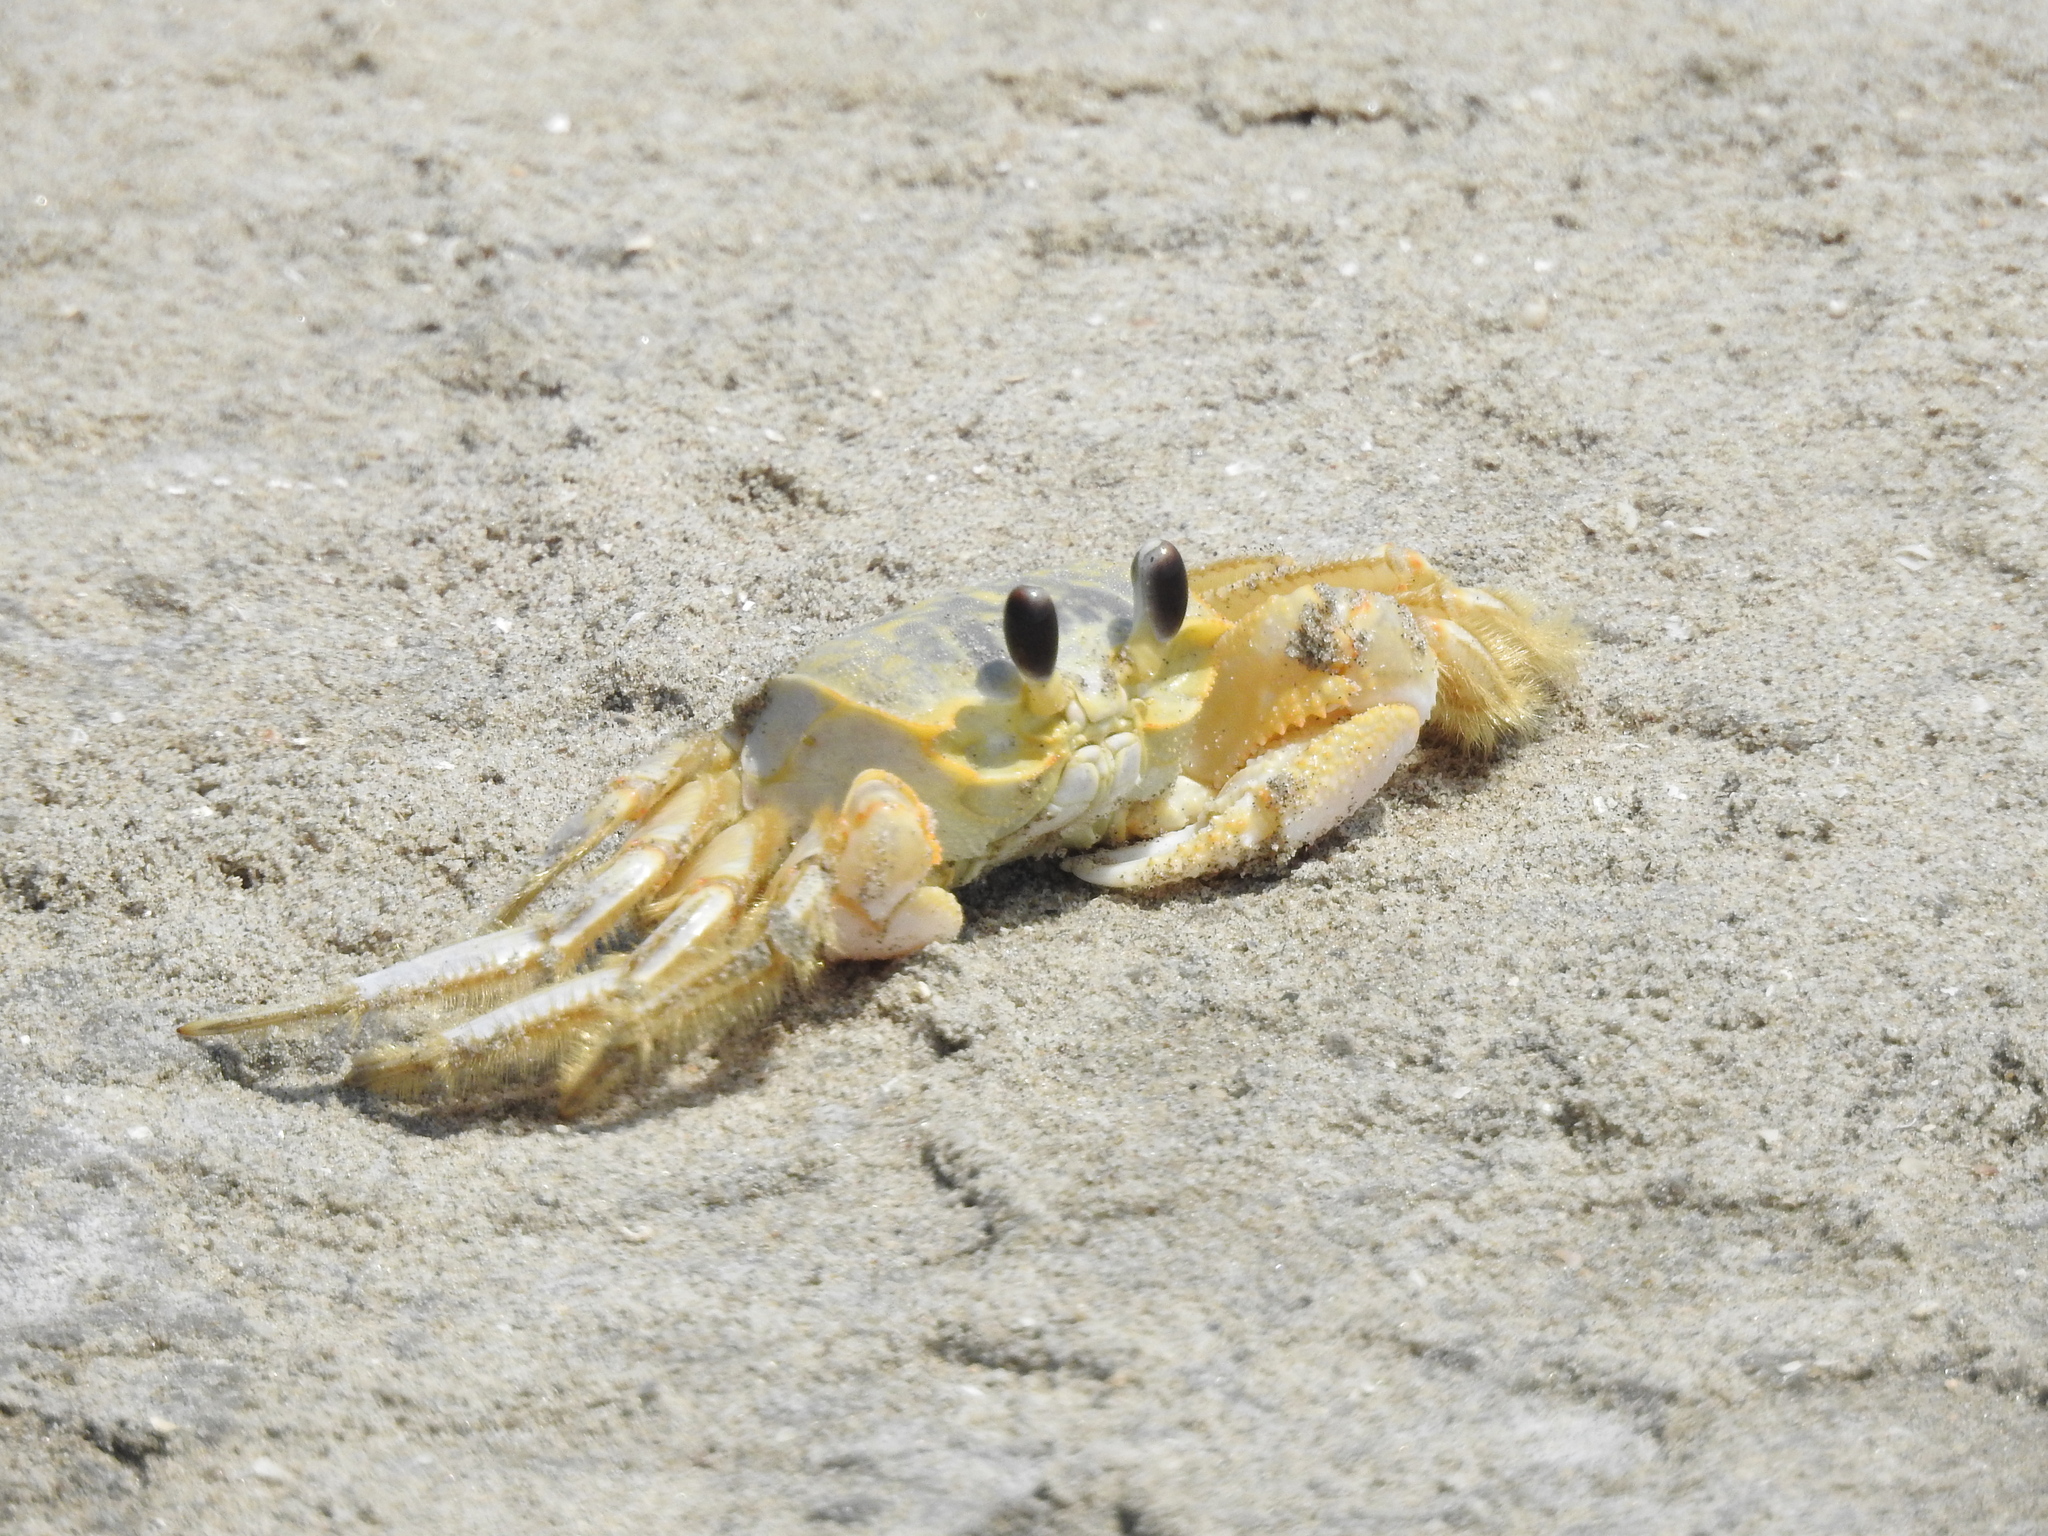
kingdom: Animalia
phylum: Arthropoda
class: Malacostraca
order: Decapoda
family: Ocypodidae
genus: Ocypode
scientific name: Ocypode quadrata
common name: Ghost crab
